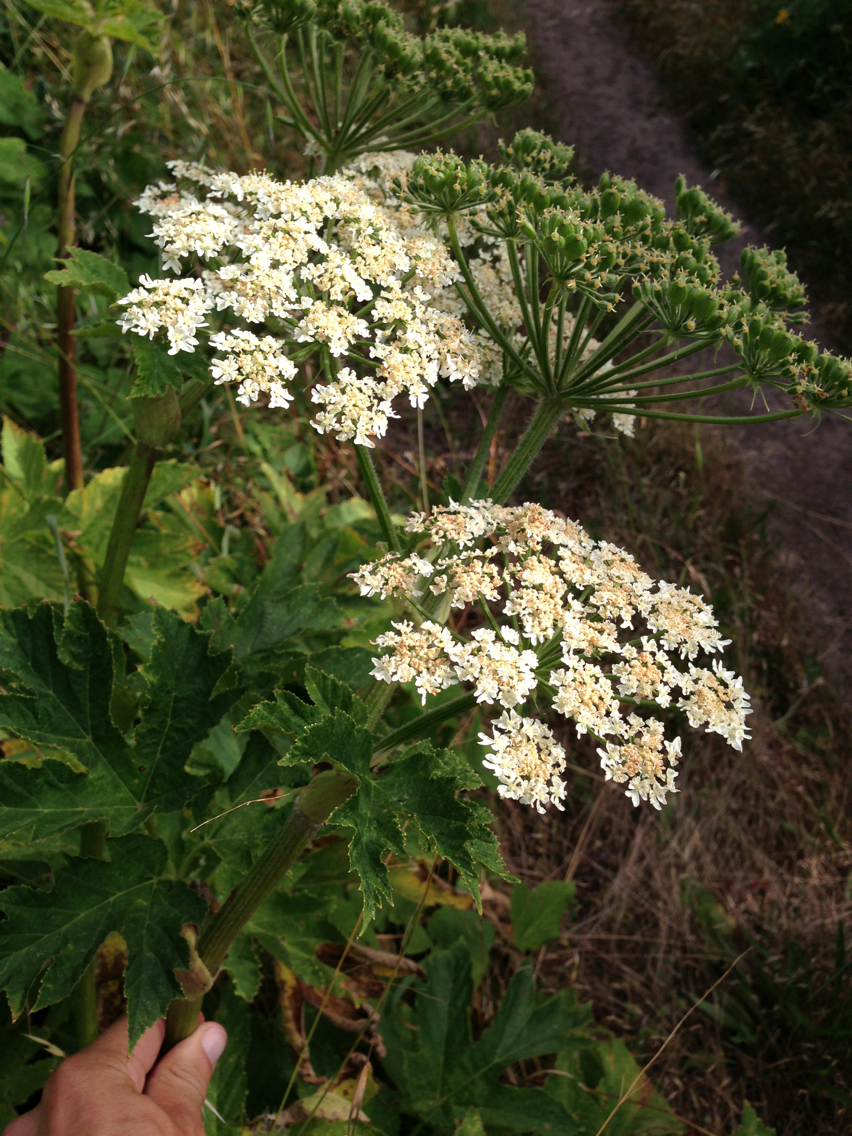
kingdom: Plantae
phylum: Tracheophyta
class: Magnoliopsida
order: Apiales
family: Apiaceae
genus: Heracleum
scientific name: Heracleum maximum
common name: American cow parsnip
